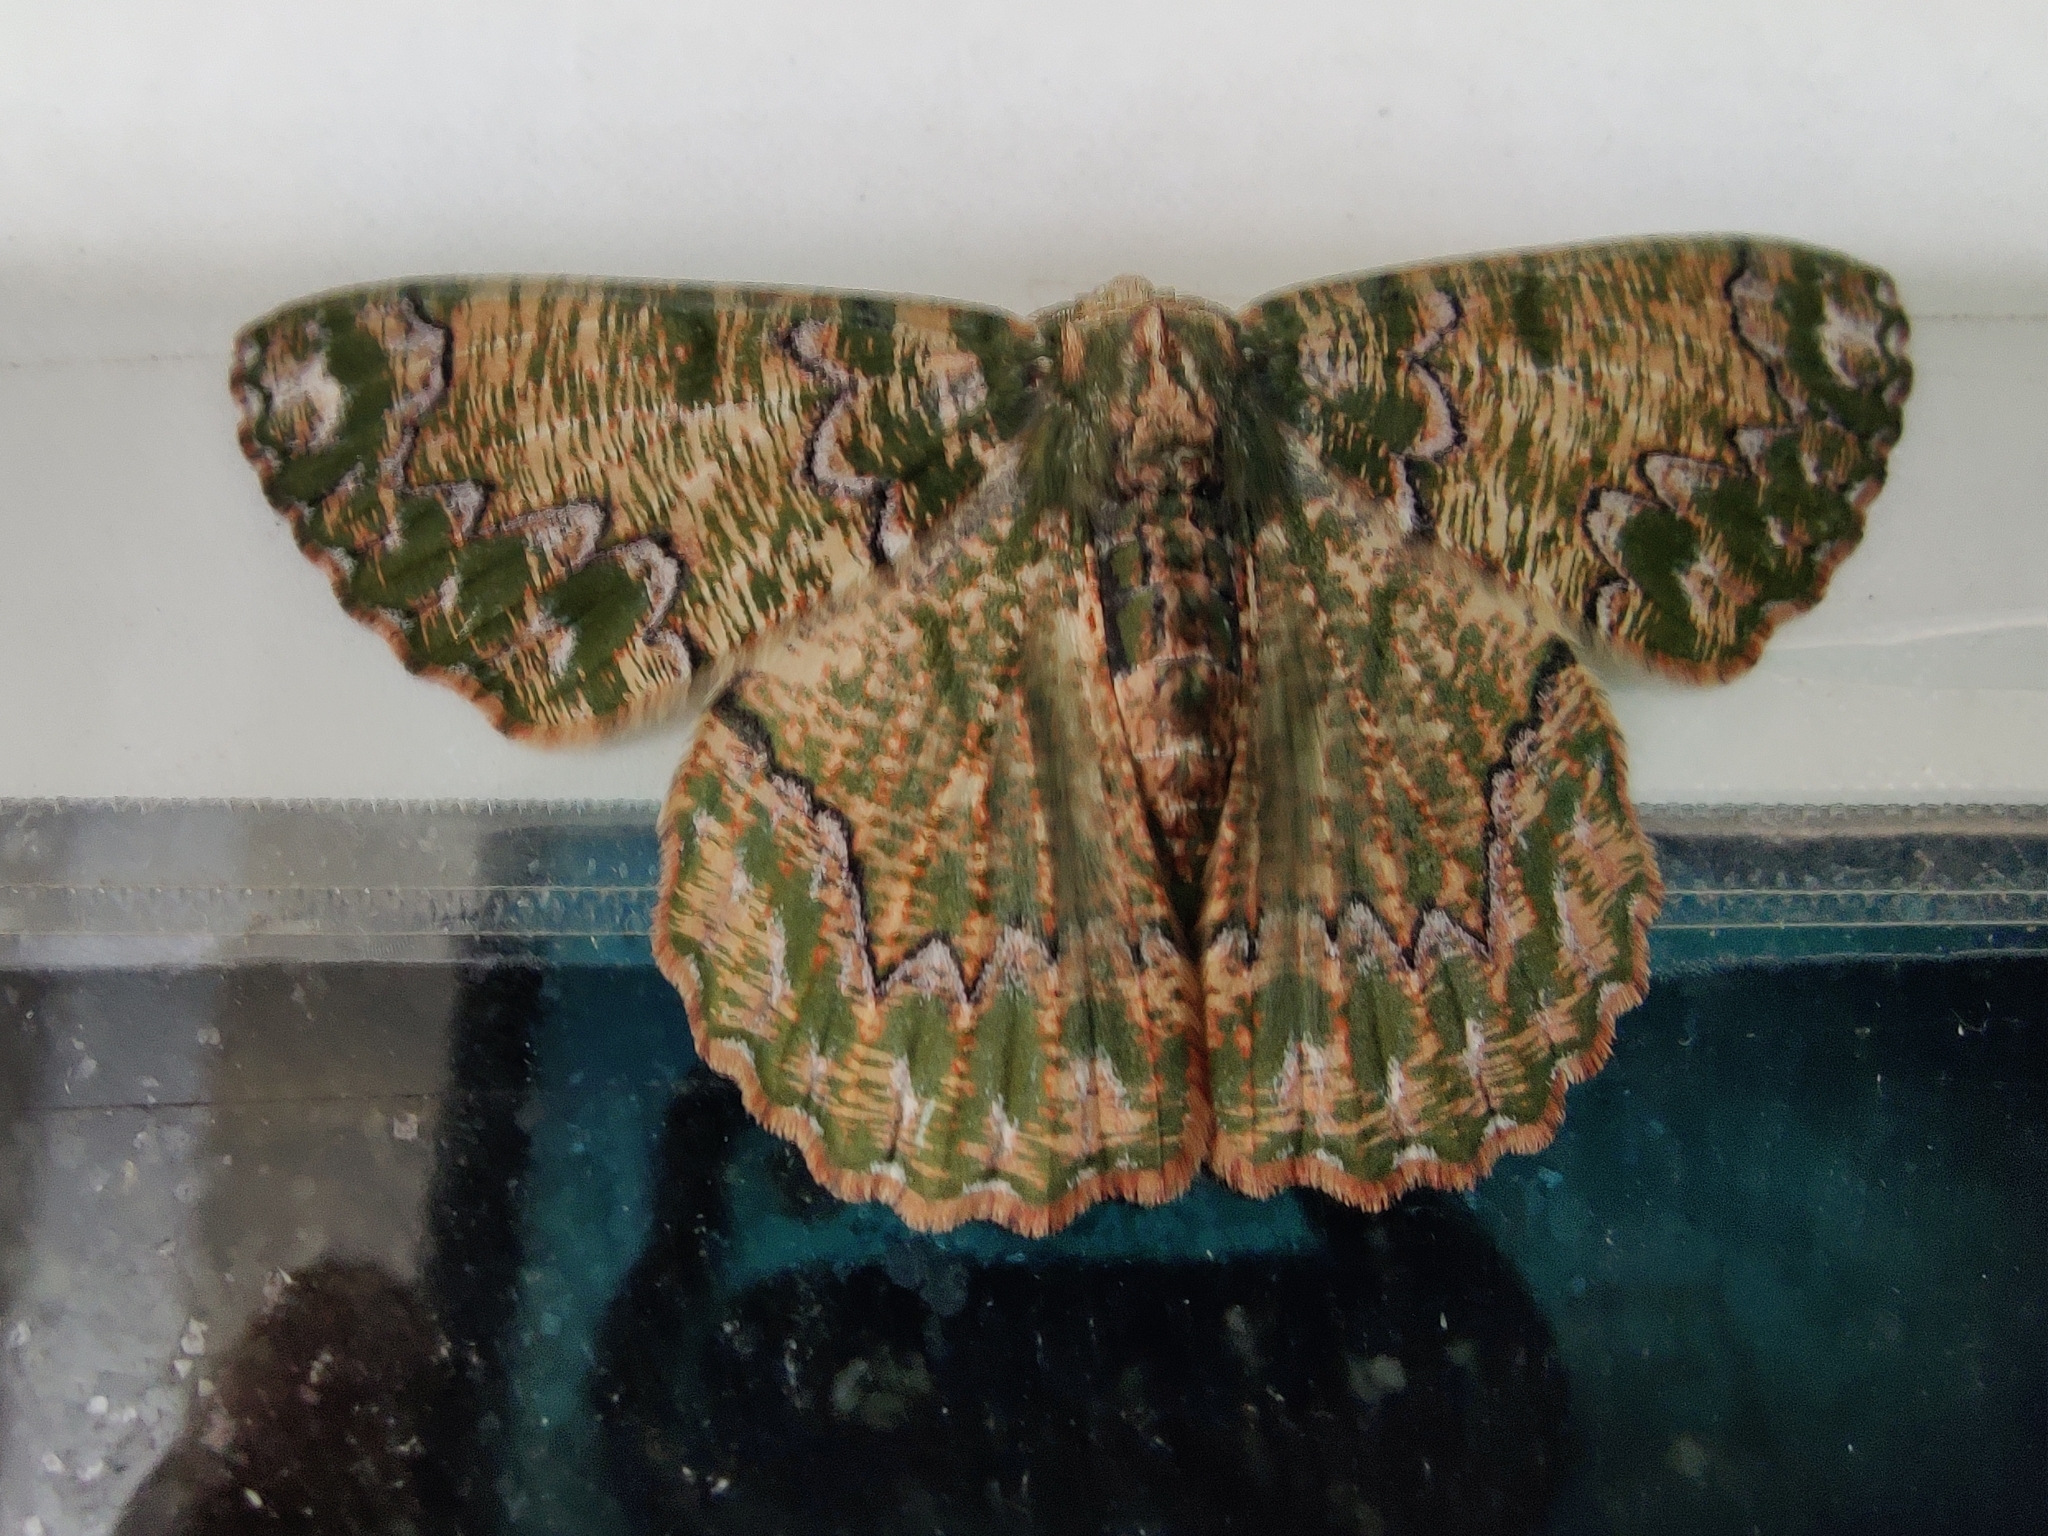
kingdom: Animalia
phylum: Arthropoda
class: Insecta
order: Lepidoptera
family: Geometridae
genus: Lophophelma
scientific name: Lophophelma varicoloraria
